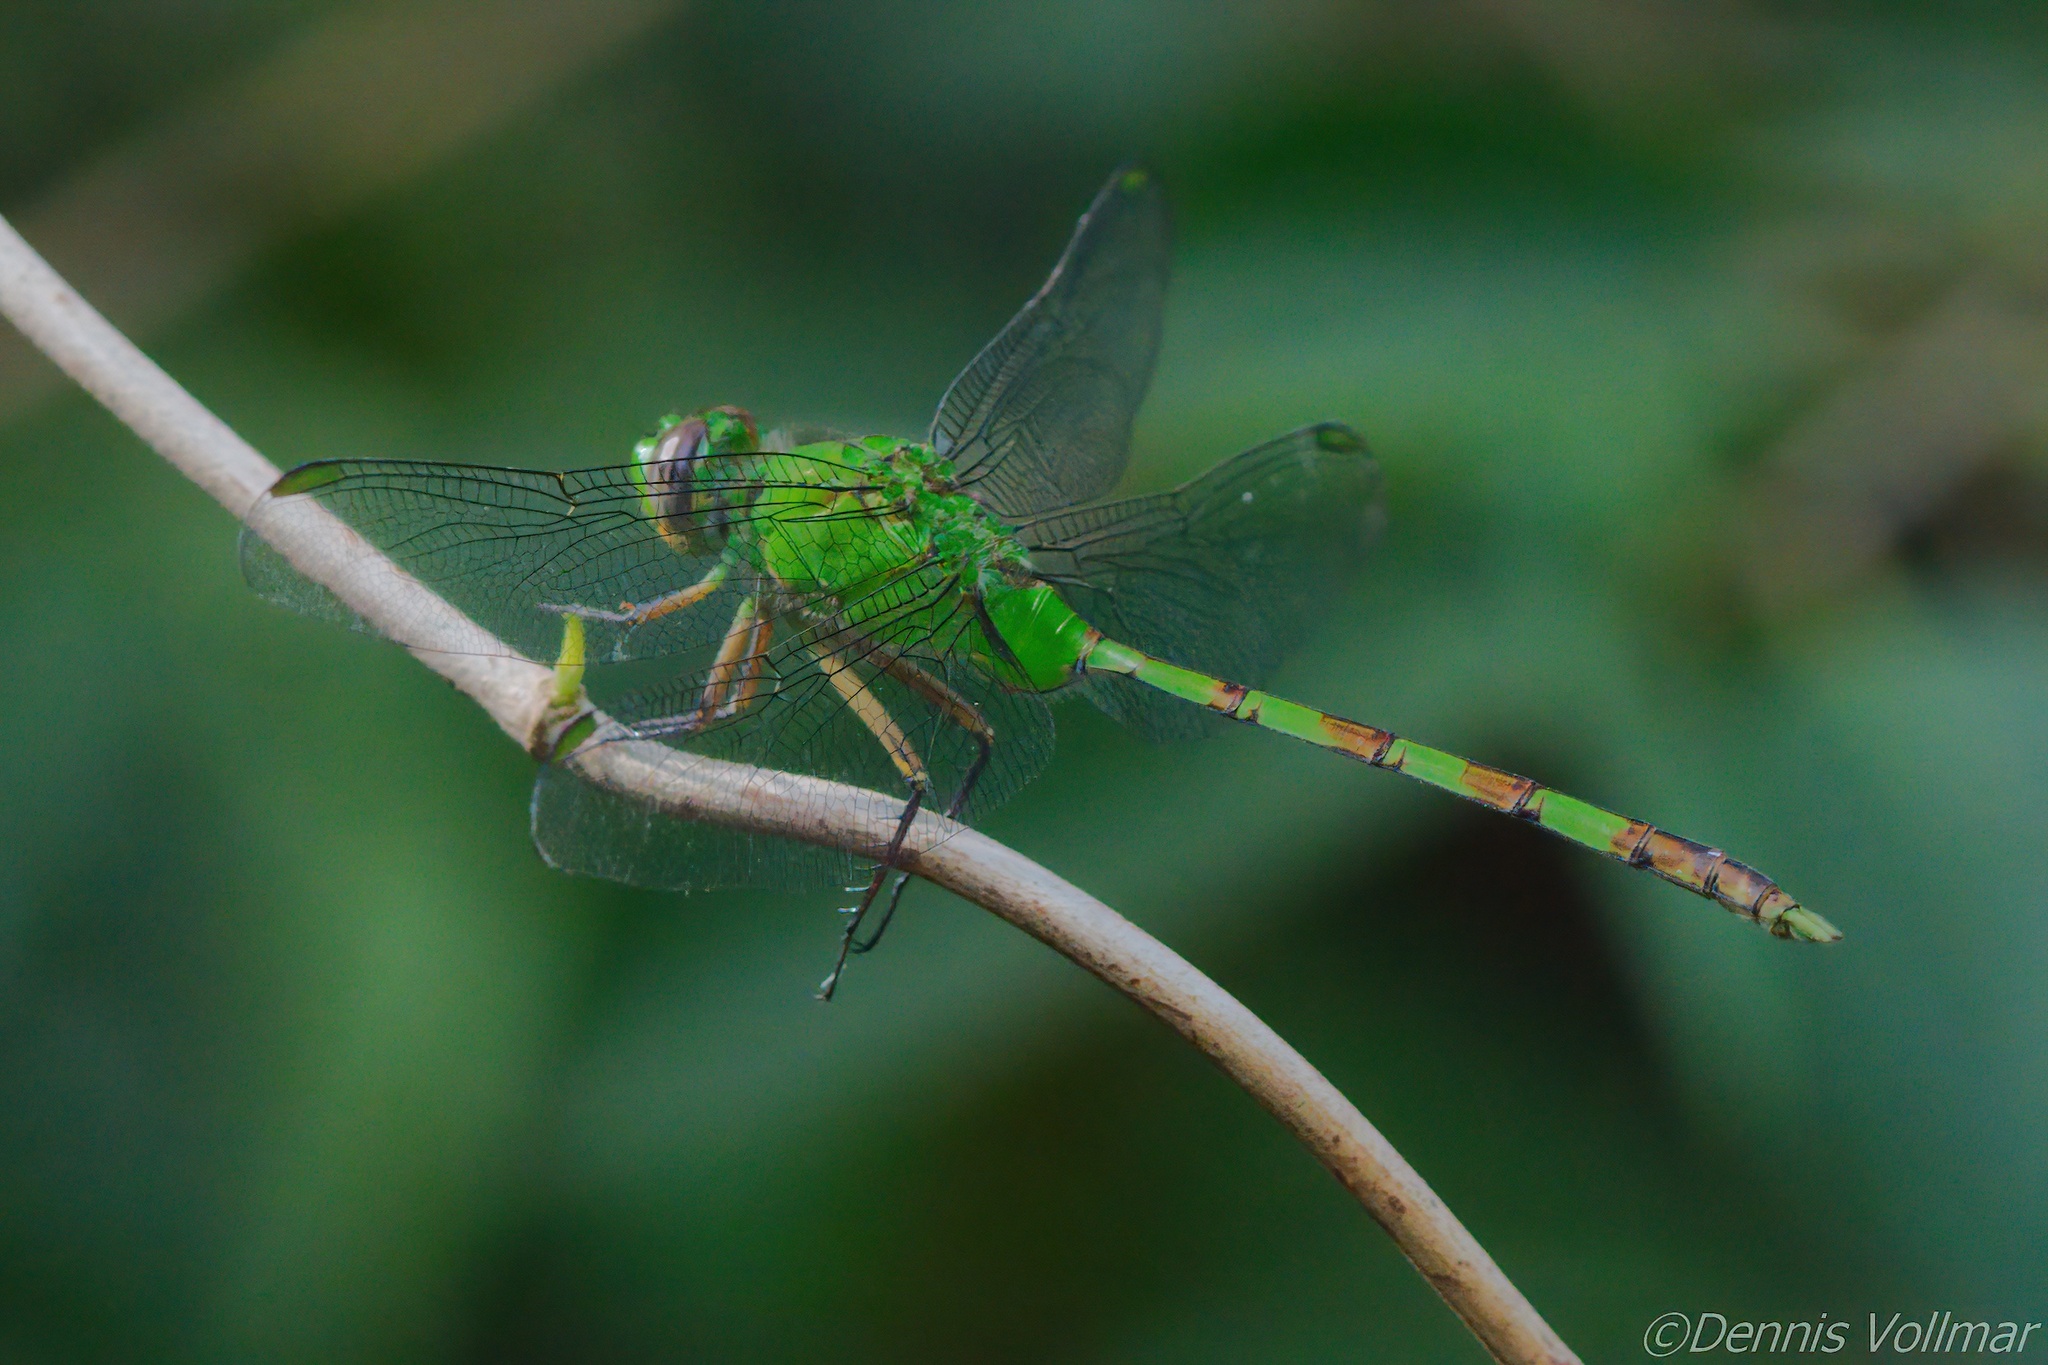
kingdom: Animalia
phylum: Arthropoda
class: Insecta
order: Odonata
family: Libellulidae
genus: Erythemis
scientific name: Erythemis vesiculosa
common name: Great pondhawk
